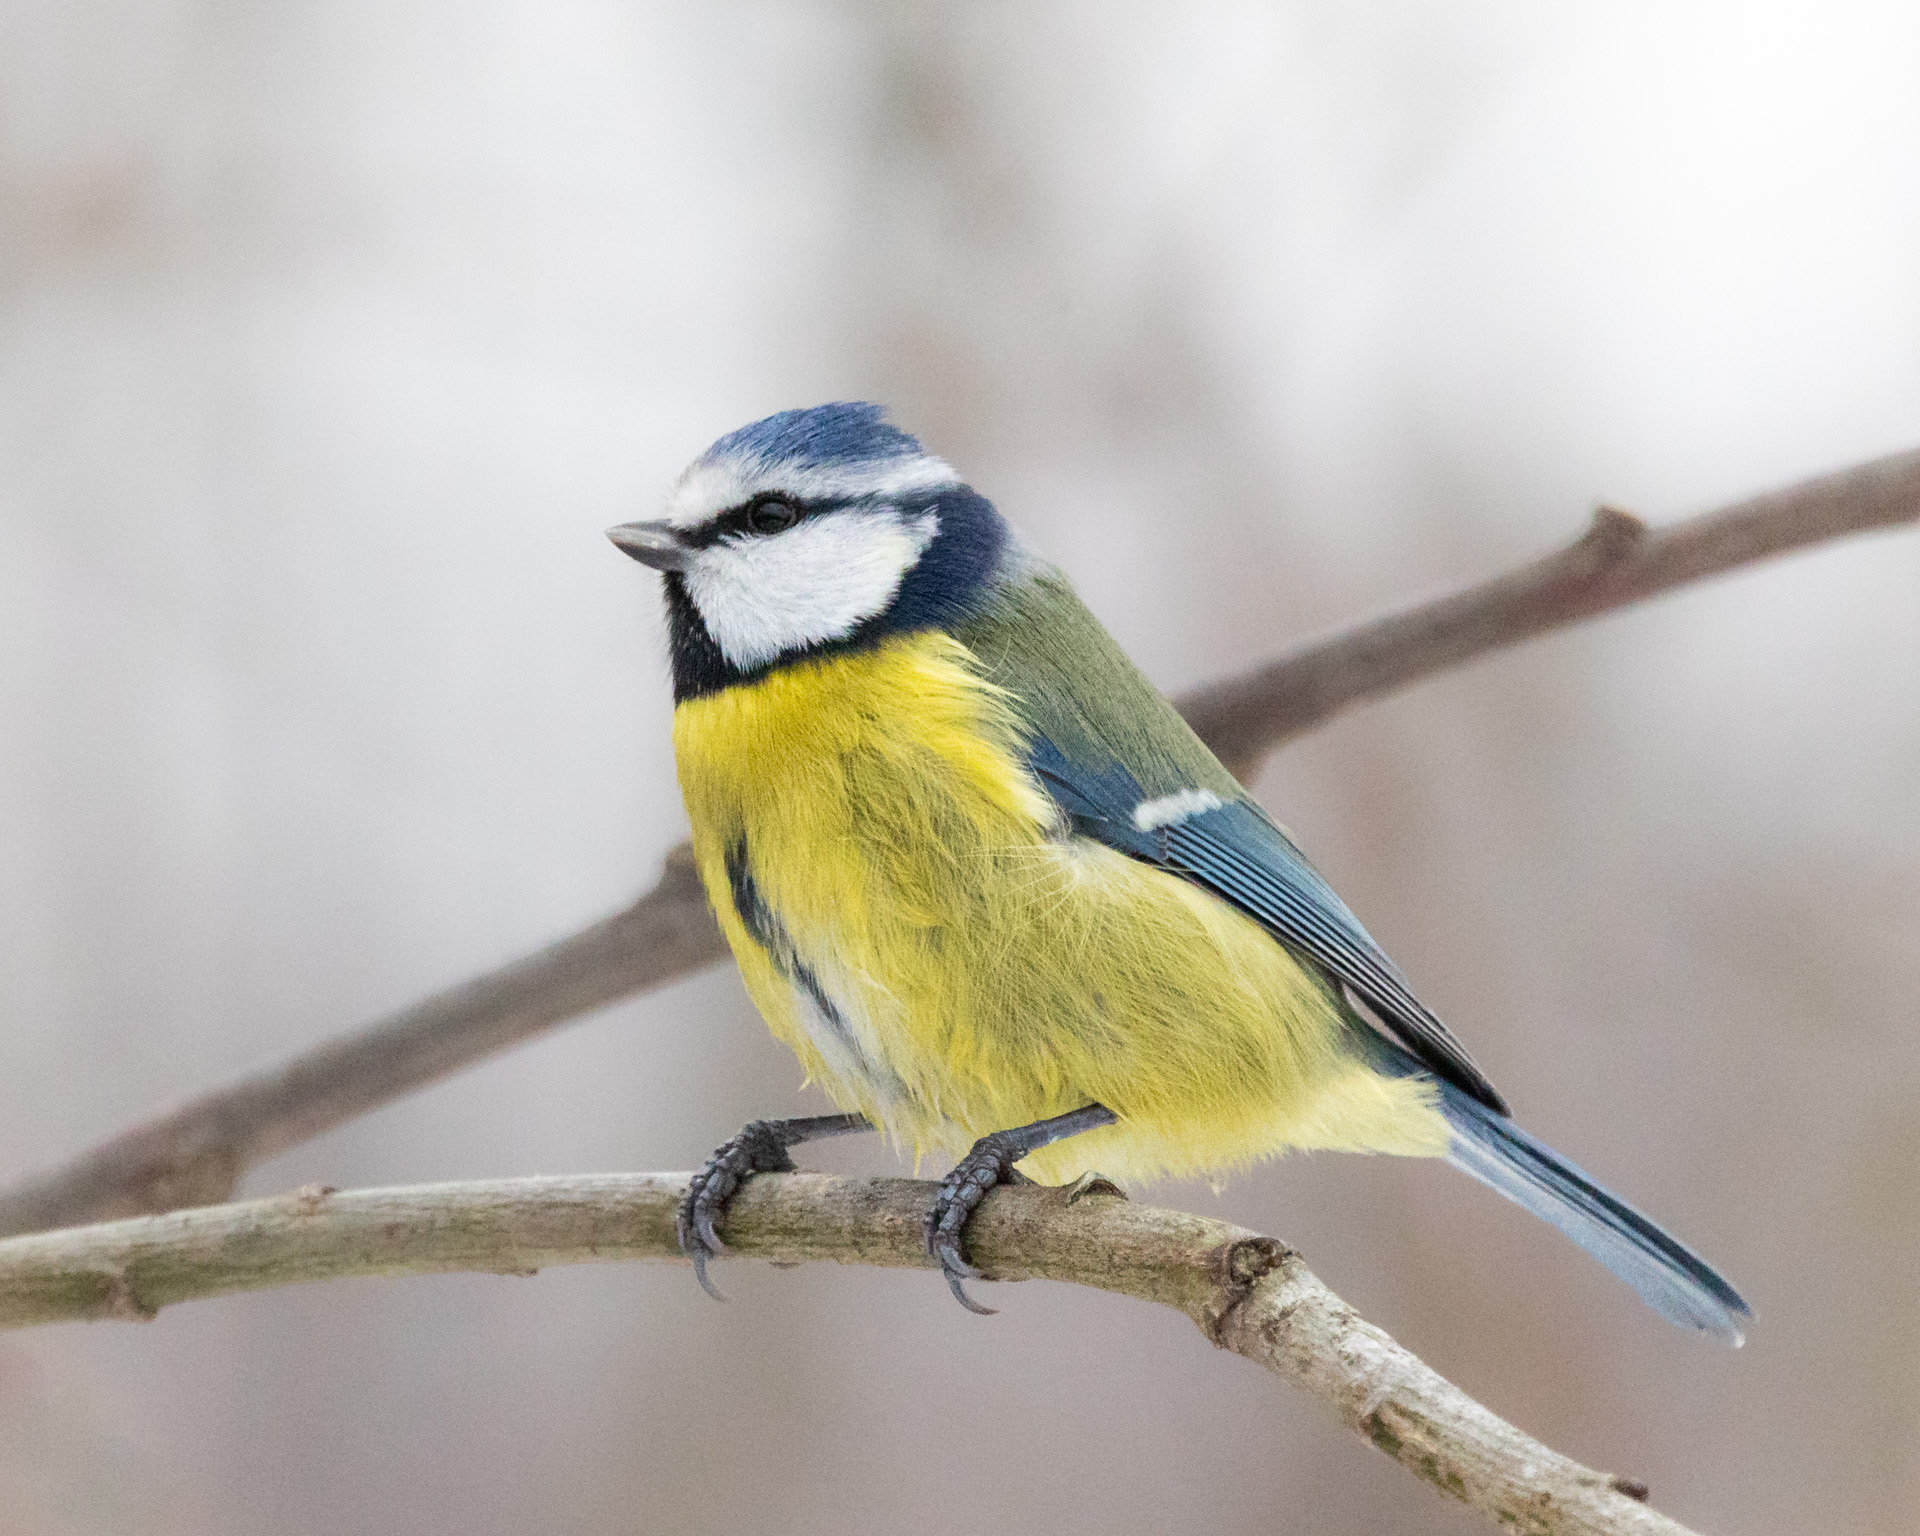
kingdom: Animalia
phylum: Chordata
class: Aves
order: Passeriformes
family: Paridae
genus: Cyanistes
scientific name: Cyanistes caeruleus
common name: Eurasian blue tit
